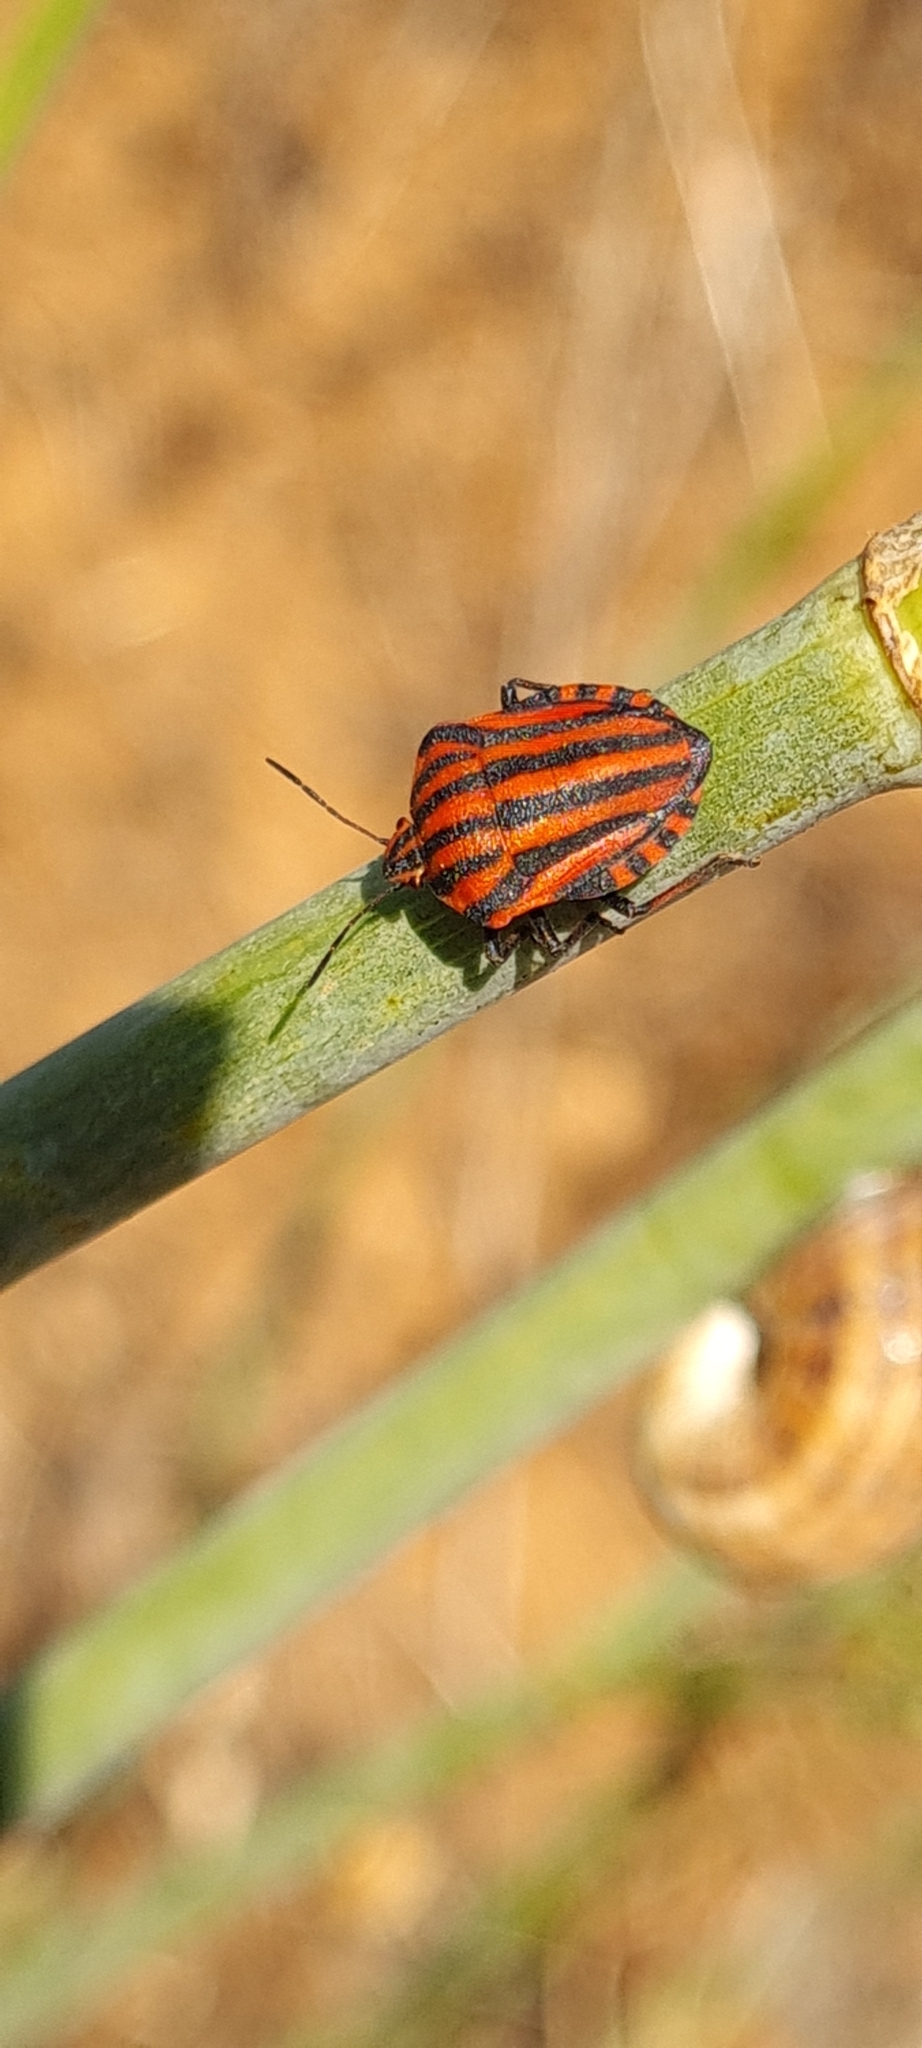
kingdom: Animalia
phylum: Arthropoda
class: Insecta
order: Hemiptera
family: Pentatomidae
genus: Graphosoma
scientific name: Graphosoma italicum
